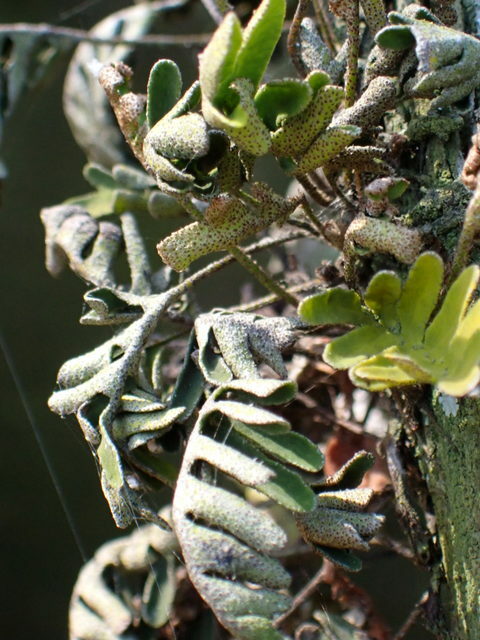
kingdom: Plantae
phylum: Tracheophyta
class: Polypodiopsida
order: Polypodiales
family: Polypodiaceae
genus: Pleopeltis
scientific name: Pleopeltis michauxiana
